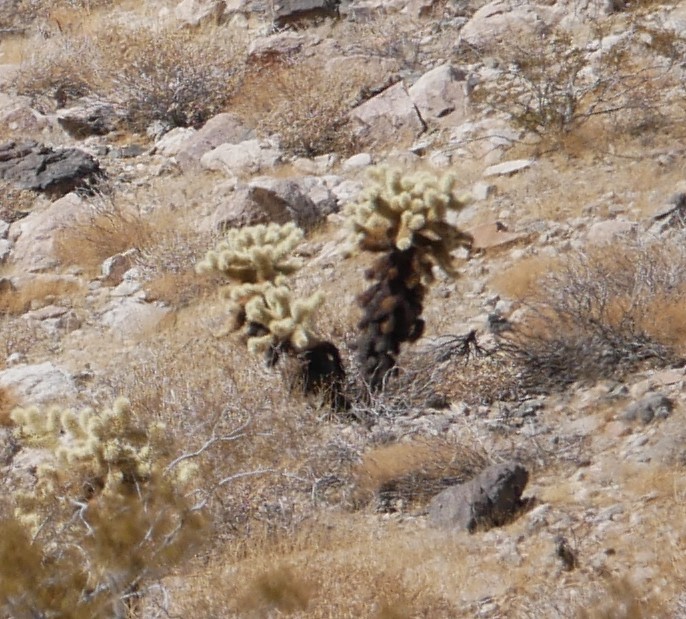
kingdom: Plantae
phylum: Tracheophyta
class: Magnoliopsida
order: Caryophyllales
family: Cactaceae
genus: Cylindropuntia
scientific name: Cylindropuntia fosbergii
